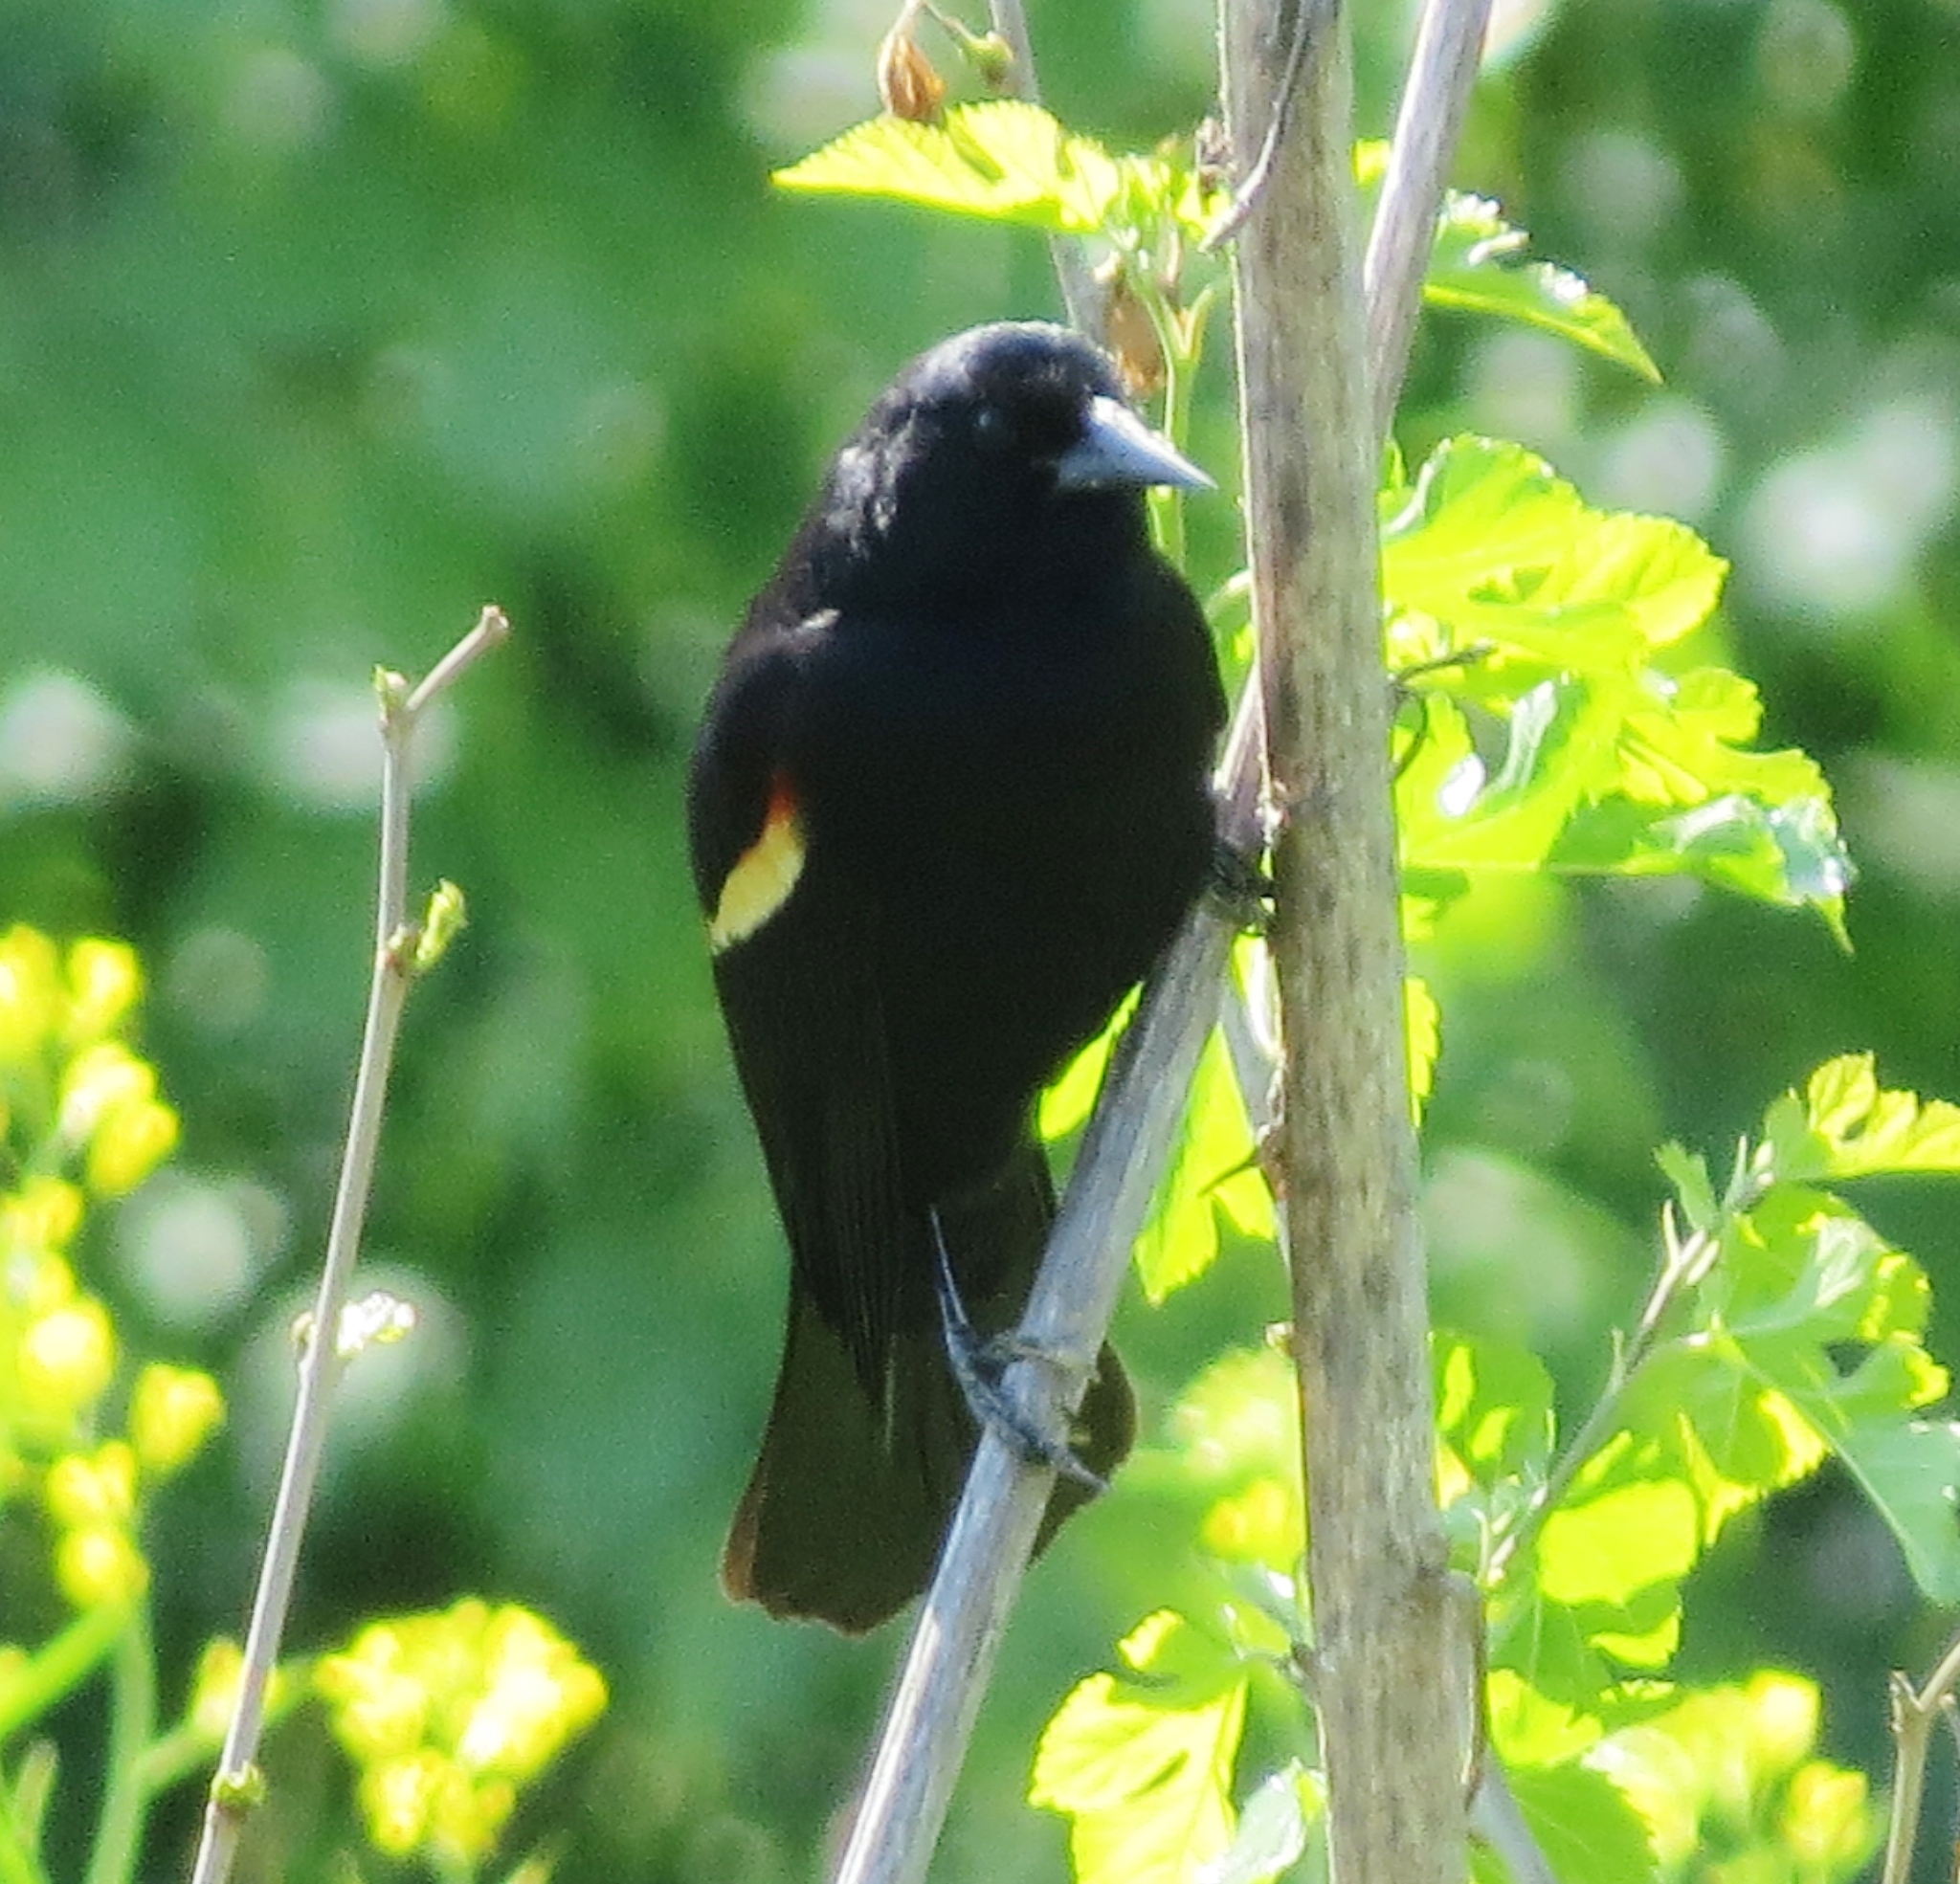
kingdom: Animalia
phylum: Chordata
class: Aves
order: Passeriformes
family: Icteridae
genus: Agelaius
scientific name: Agelaius phoeniceus
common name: Red-winged blackbird
